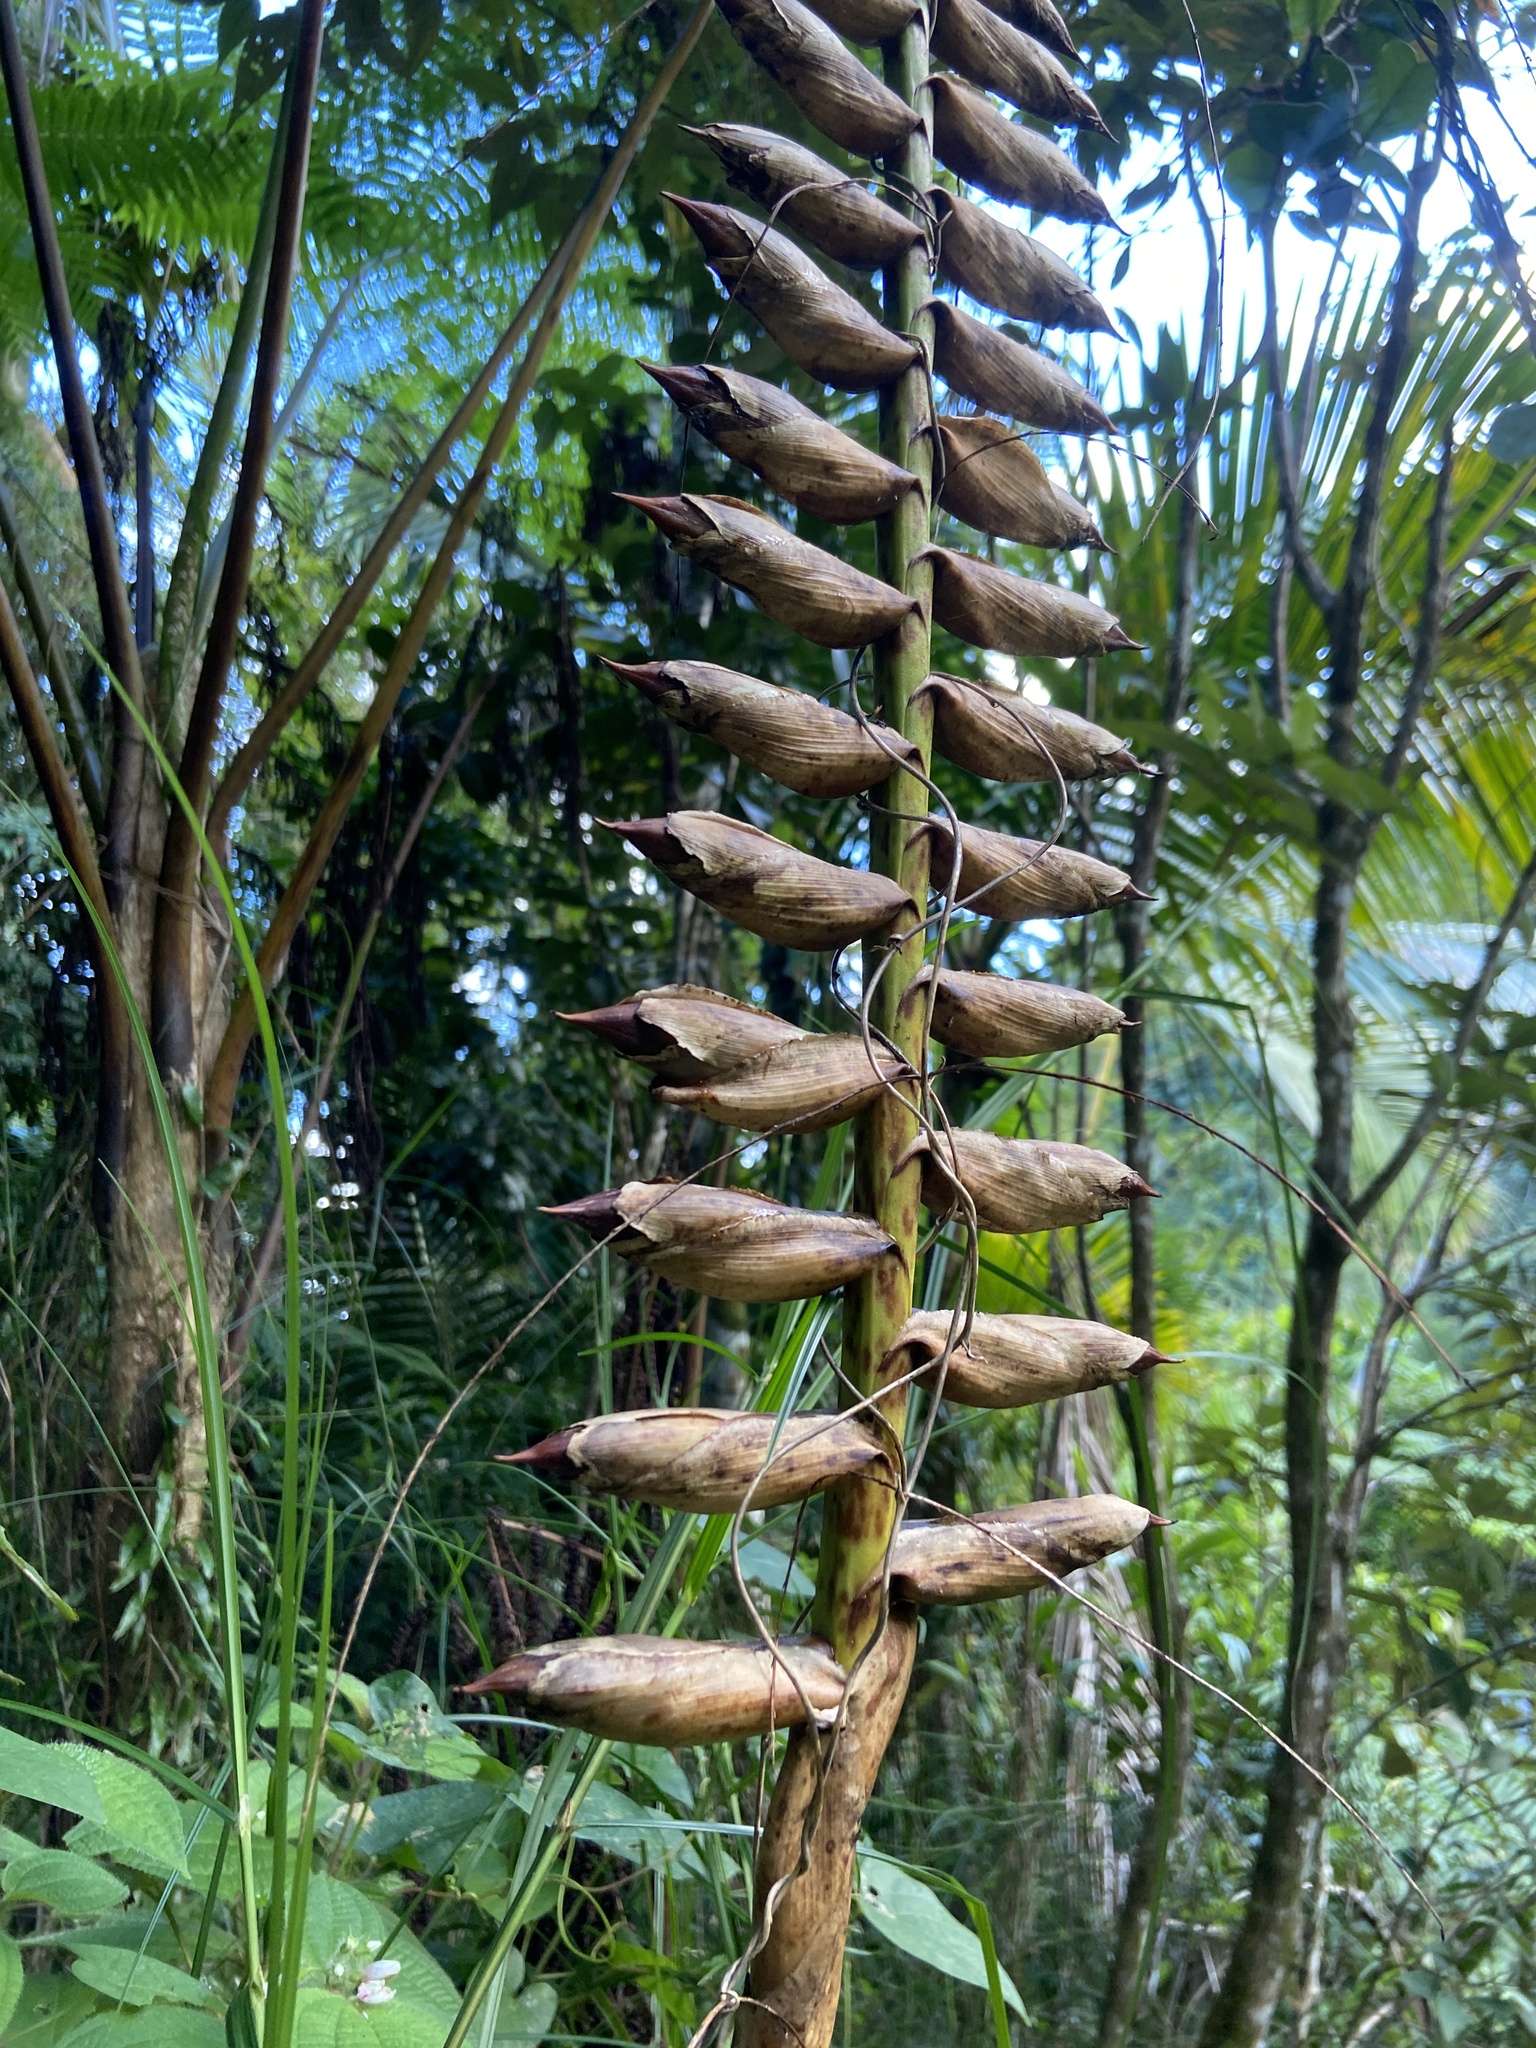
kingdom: Plantae
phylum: Tracheophyta
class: Liliopsida
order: Poales
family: Bromeliaceae
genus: Vriesea
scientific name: Vriesea macrostachya
